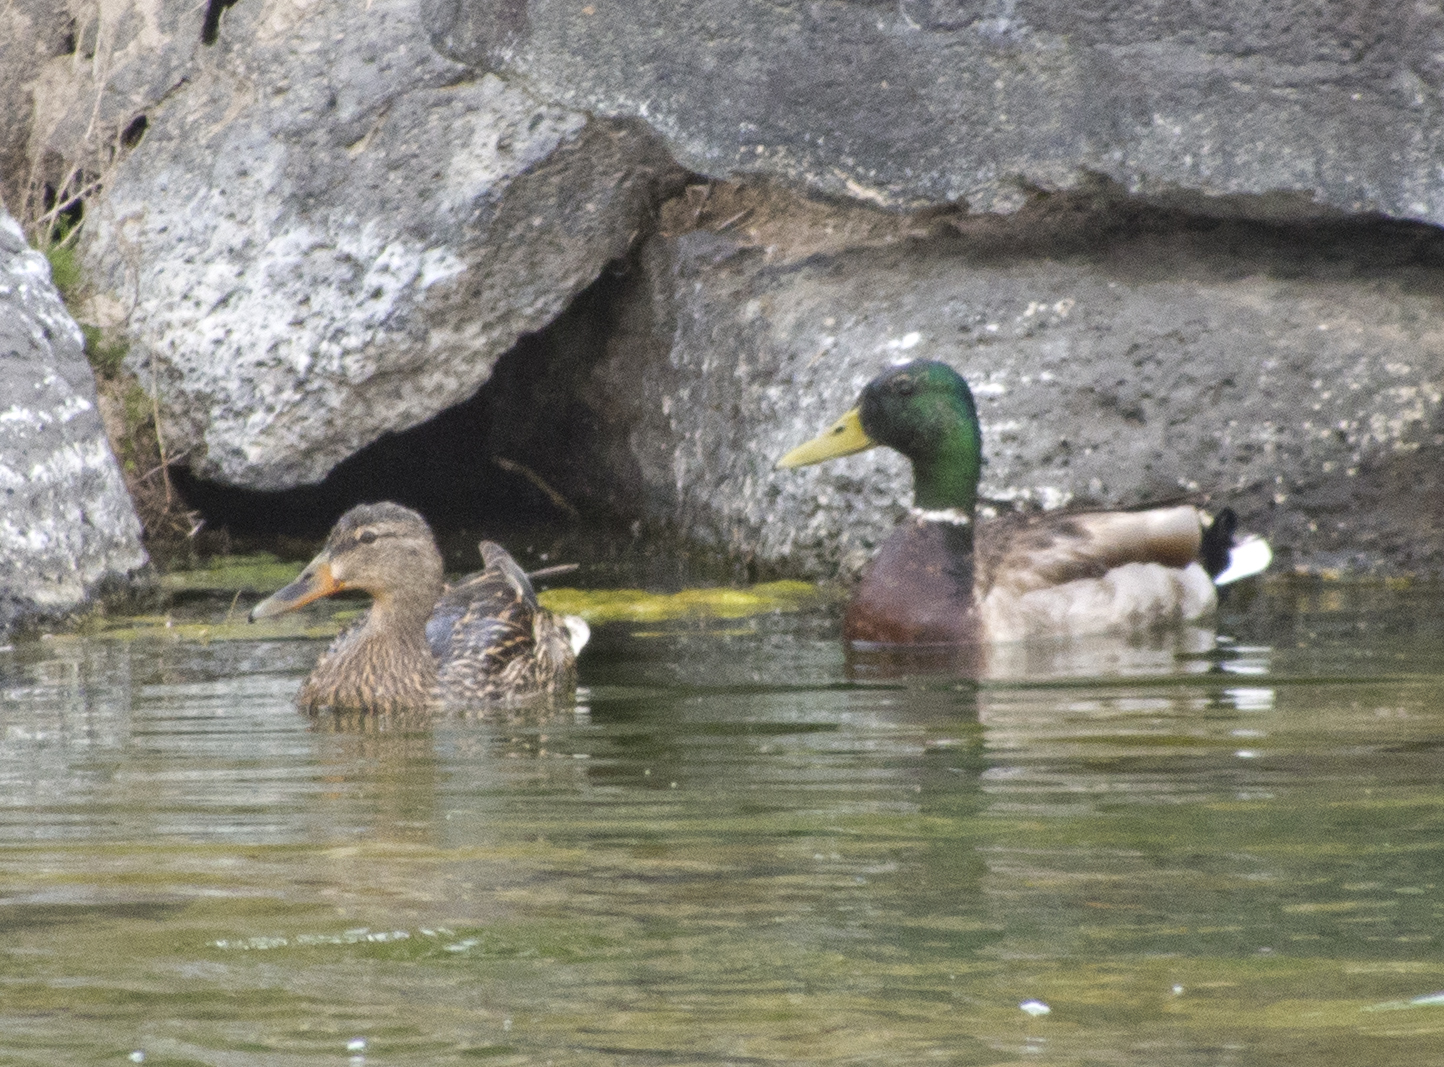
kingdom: Animalia
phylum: Chordata
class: Aves
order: Anseriformes
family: Anatidae
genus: Anas
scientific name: Anas platyrhynchos
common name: Mallard
